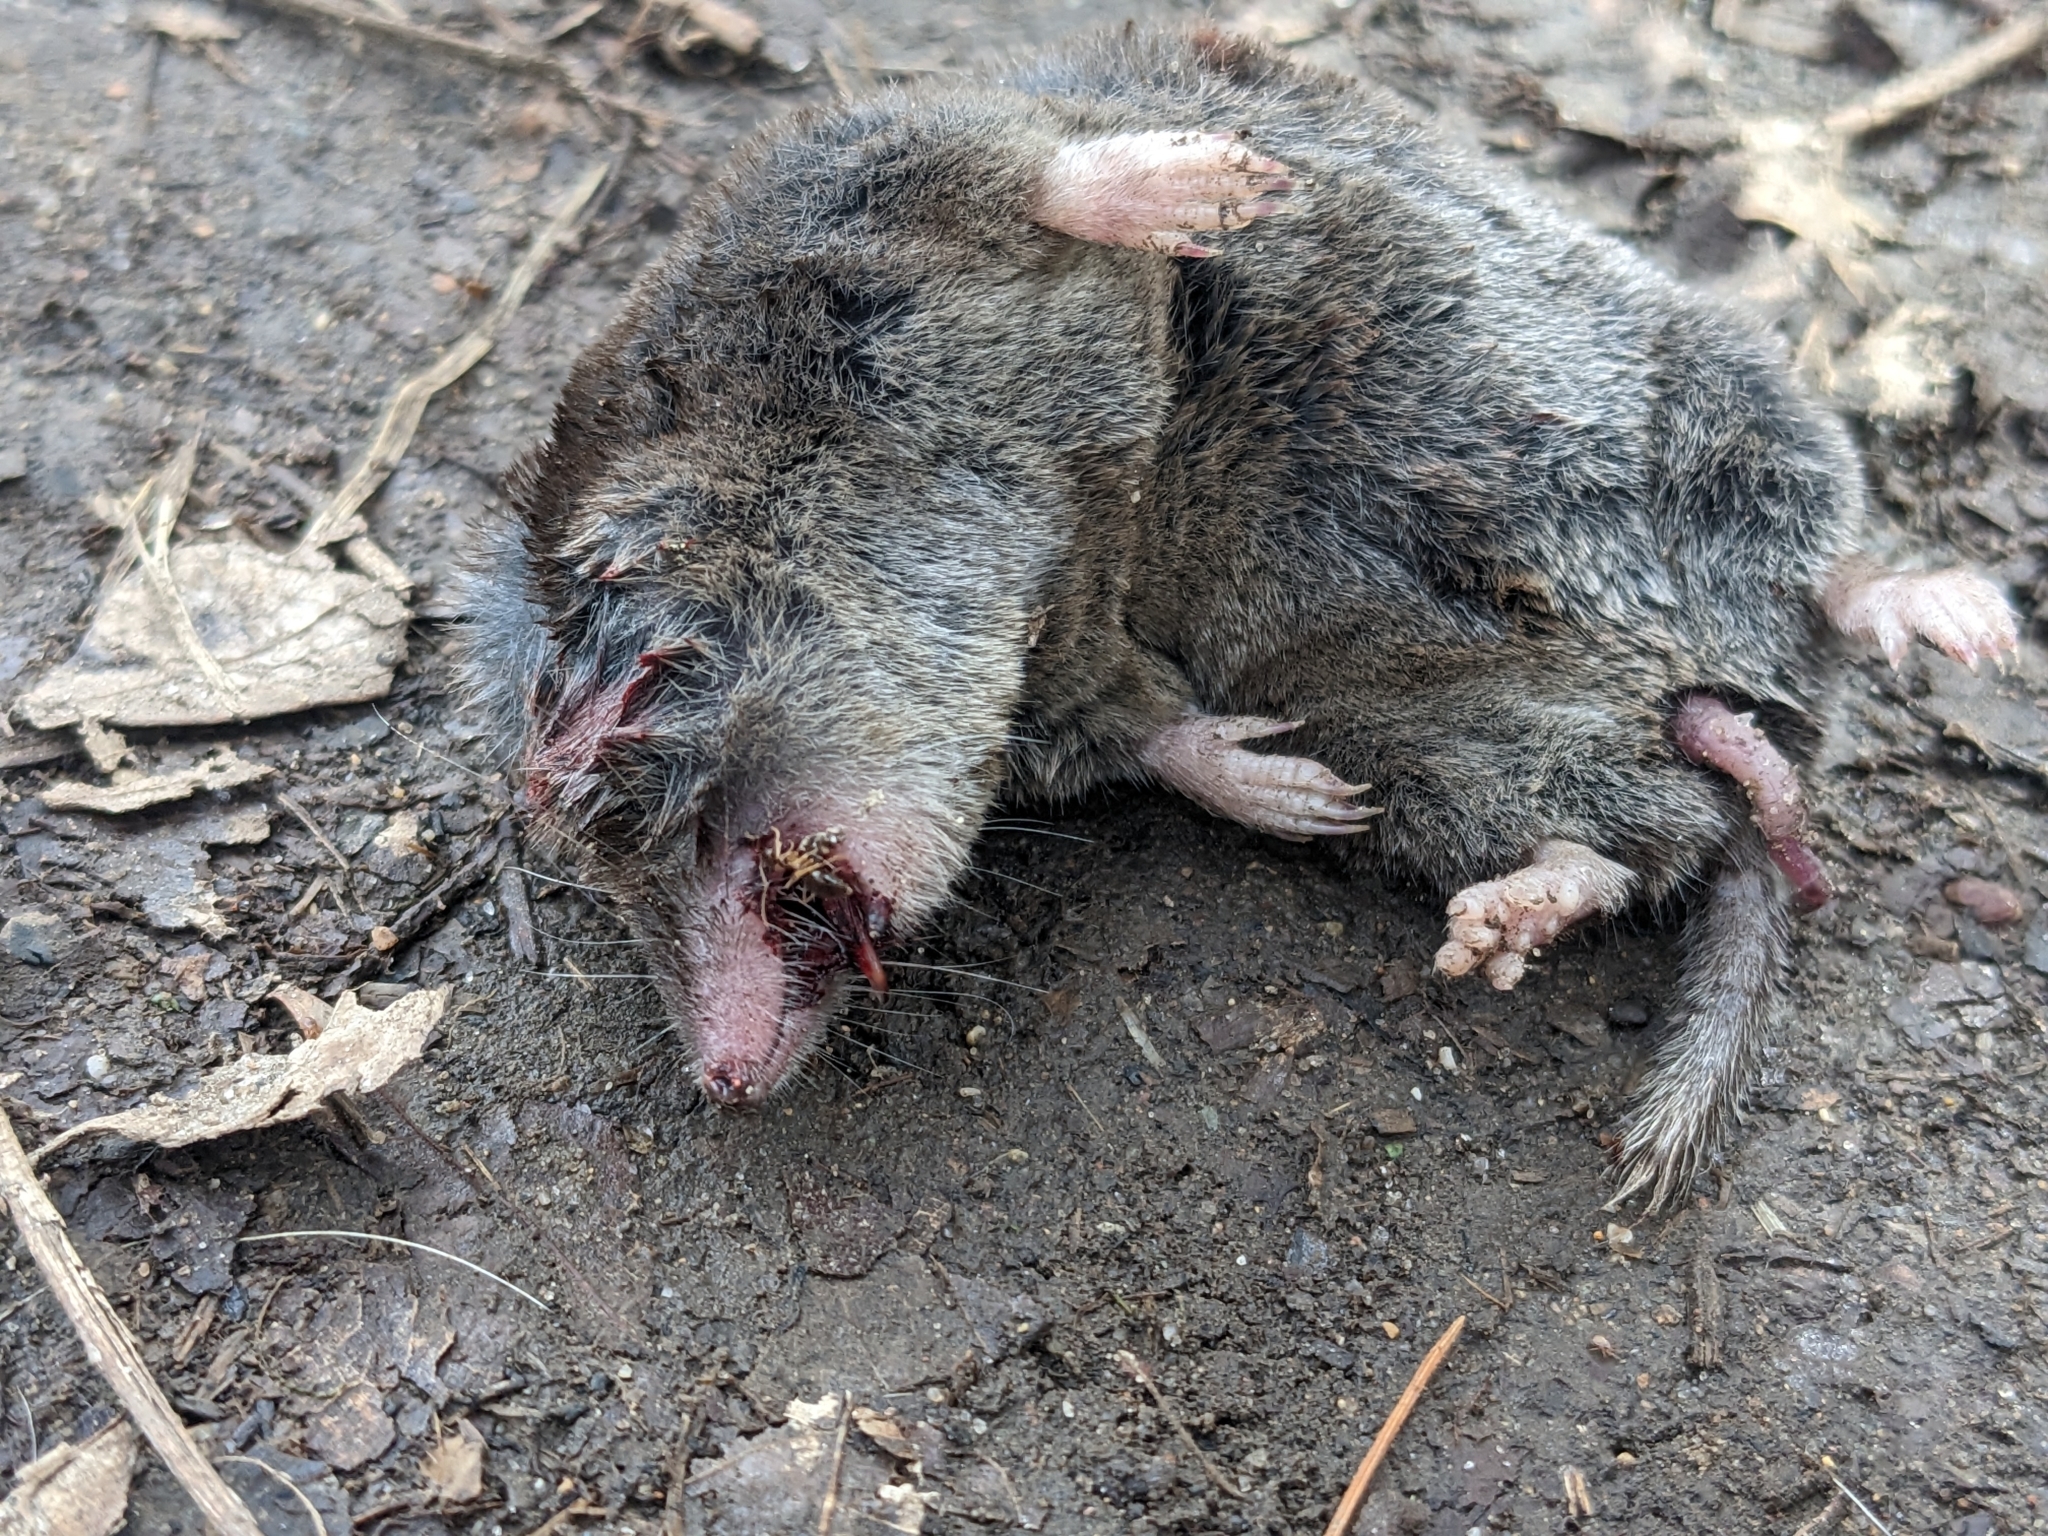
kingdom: Animalia
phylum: Chordata
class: Mammalia
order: Soricomorpha
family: Soricidae
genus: Blarina
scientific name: Blarina brevicauda
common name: Northern short-tailed shrew
